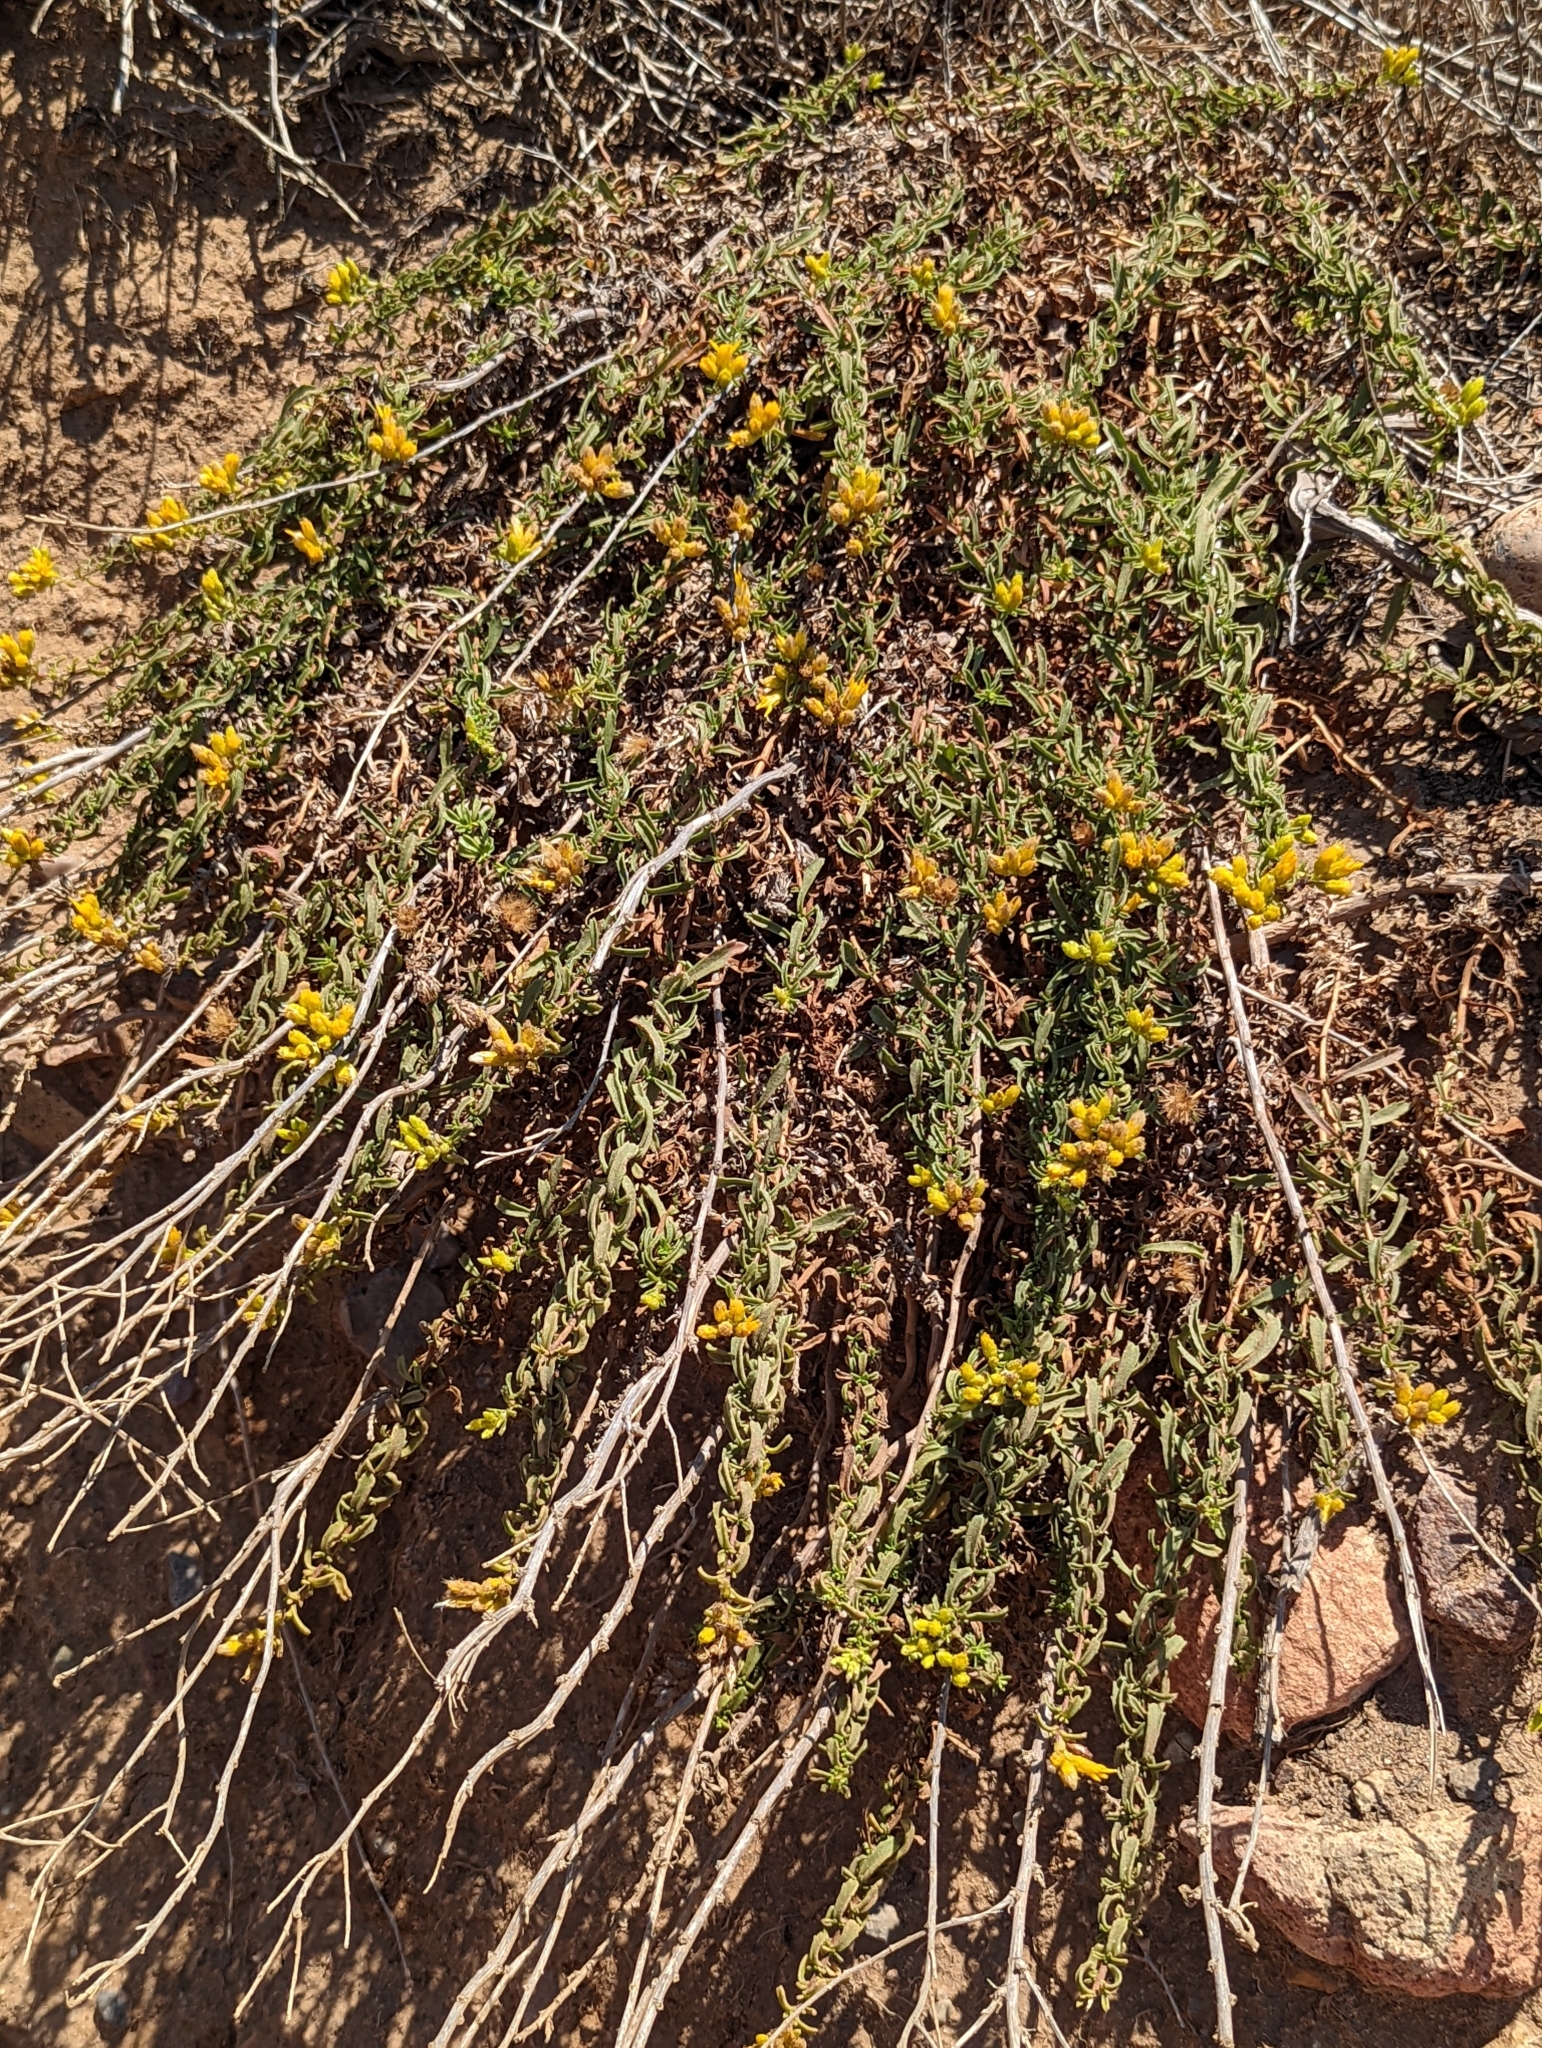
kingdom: Plantae
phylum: Tracheophyta
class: Magnoliopsida
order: Asterales
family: Asteraceae
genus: Isocoma
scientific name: Isocoma menziesii
